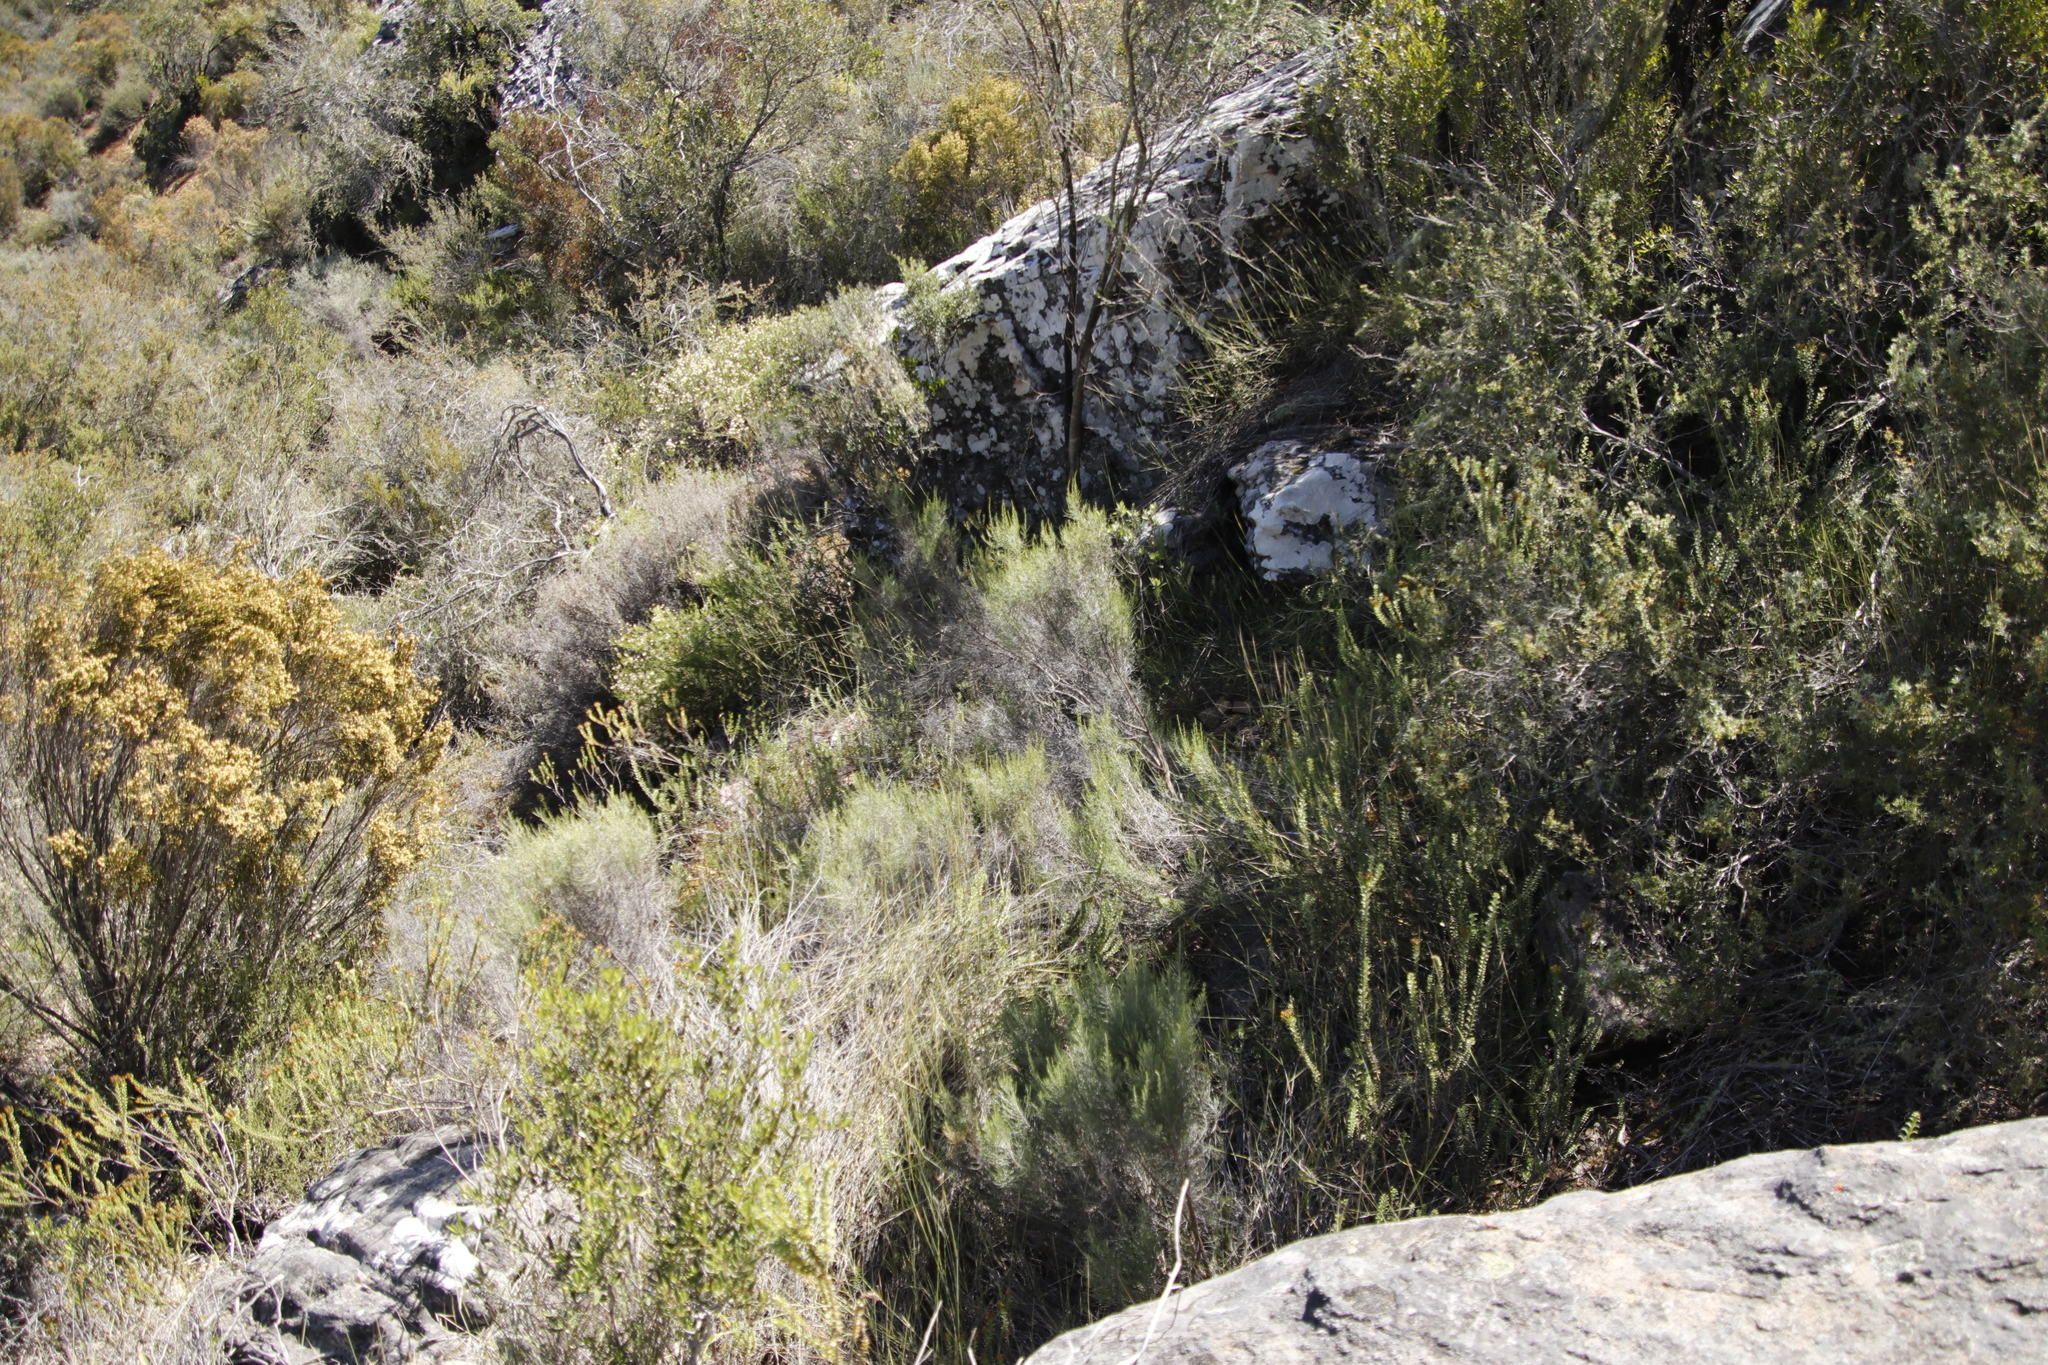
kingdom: Plantae
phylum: Tracheophyta
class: Magnoliopsida
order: Asterales
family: Asteraceae
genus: Dicerothamnus
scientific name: Dicerothamnus rhinocerotis
